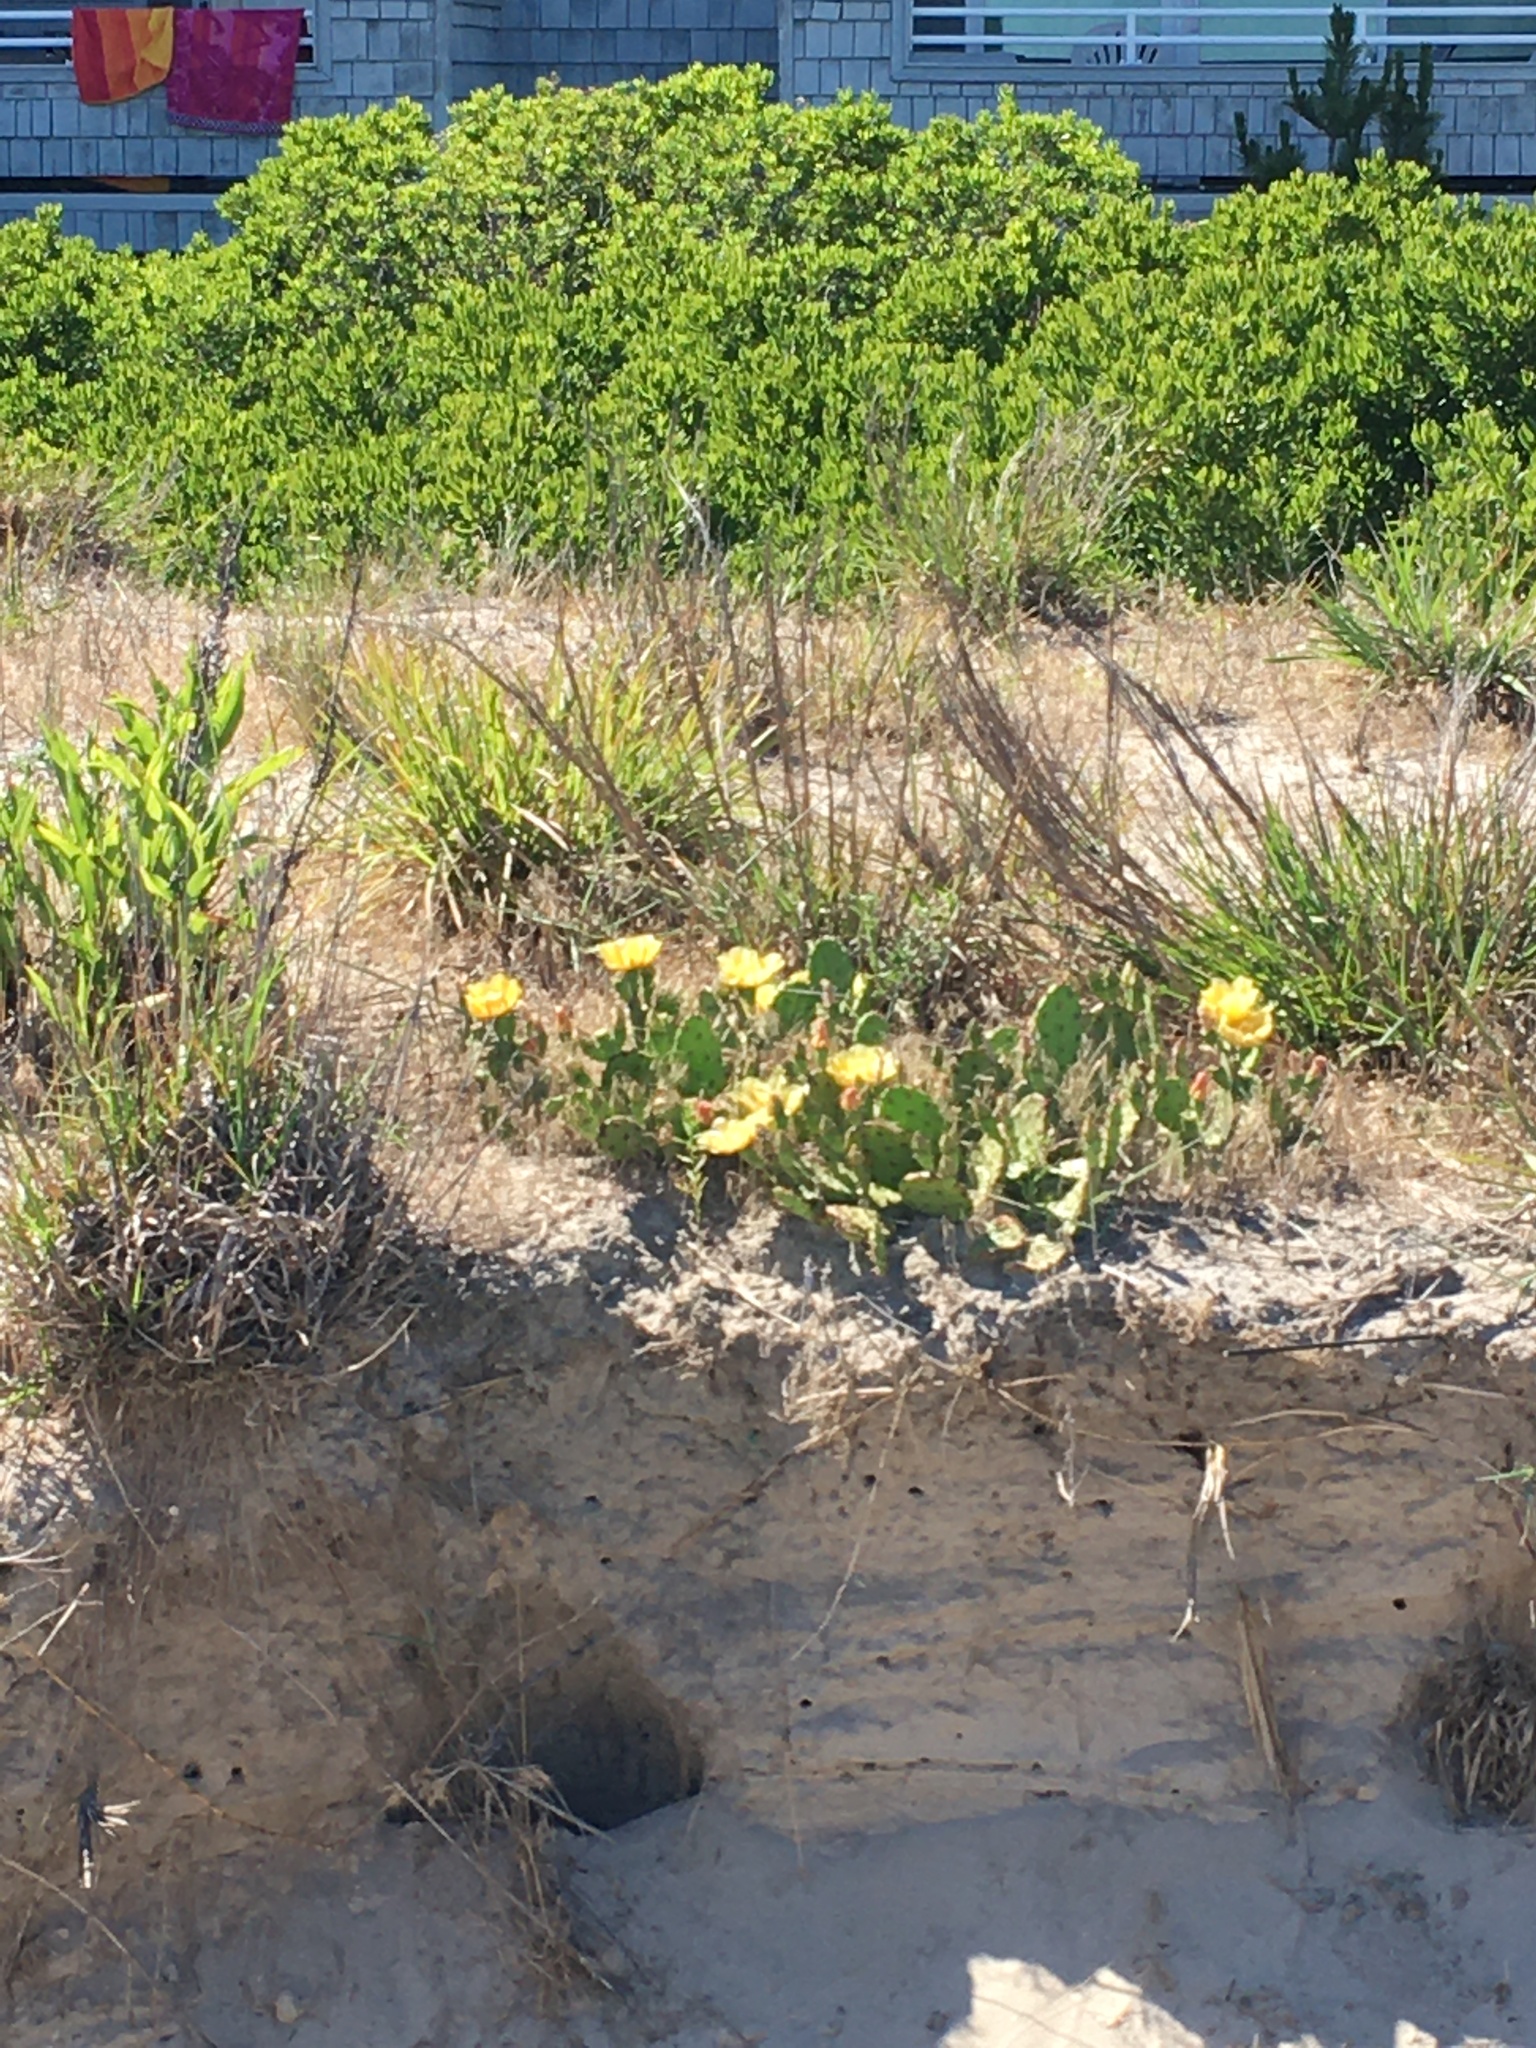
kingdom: Plantae
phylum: Tracheophyta
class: Magnoliopsida
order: Caryophyllales
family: Cactaceae
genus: Opuntia
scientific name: Opuntia humifusa
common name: Eastern prickly-pear
